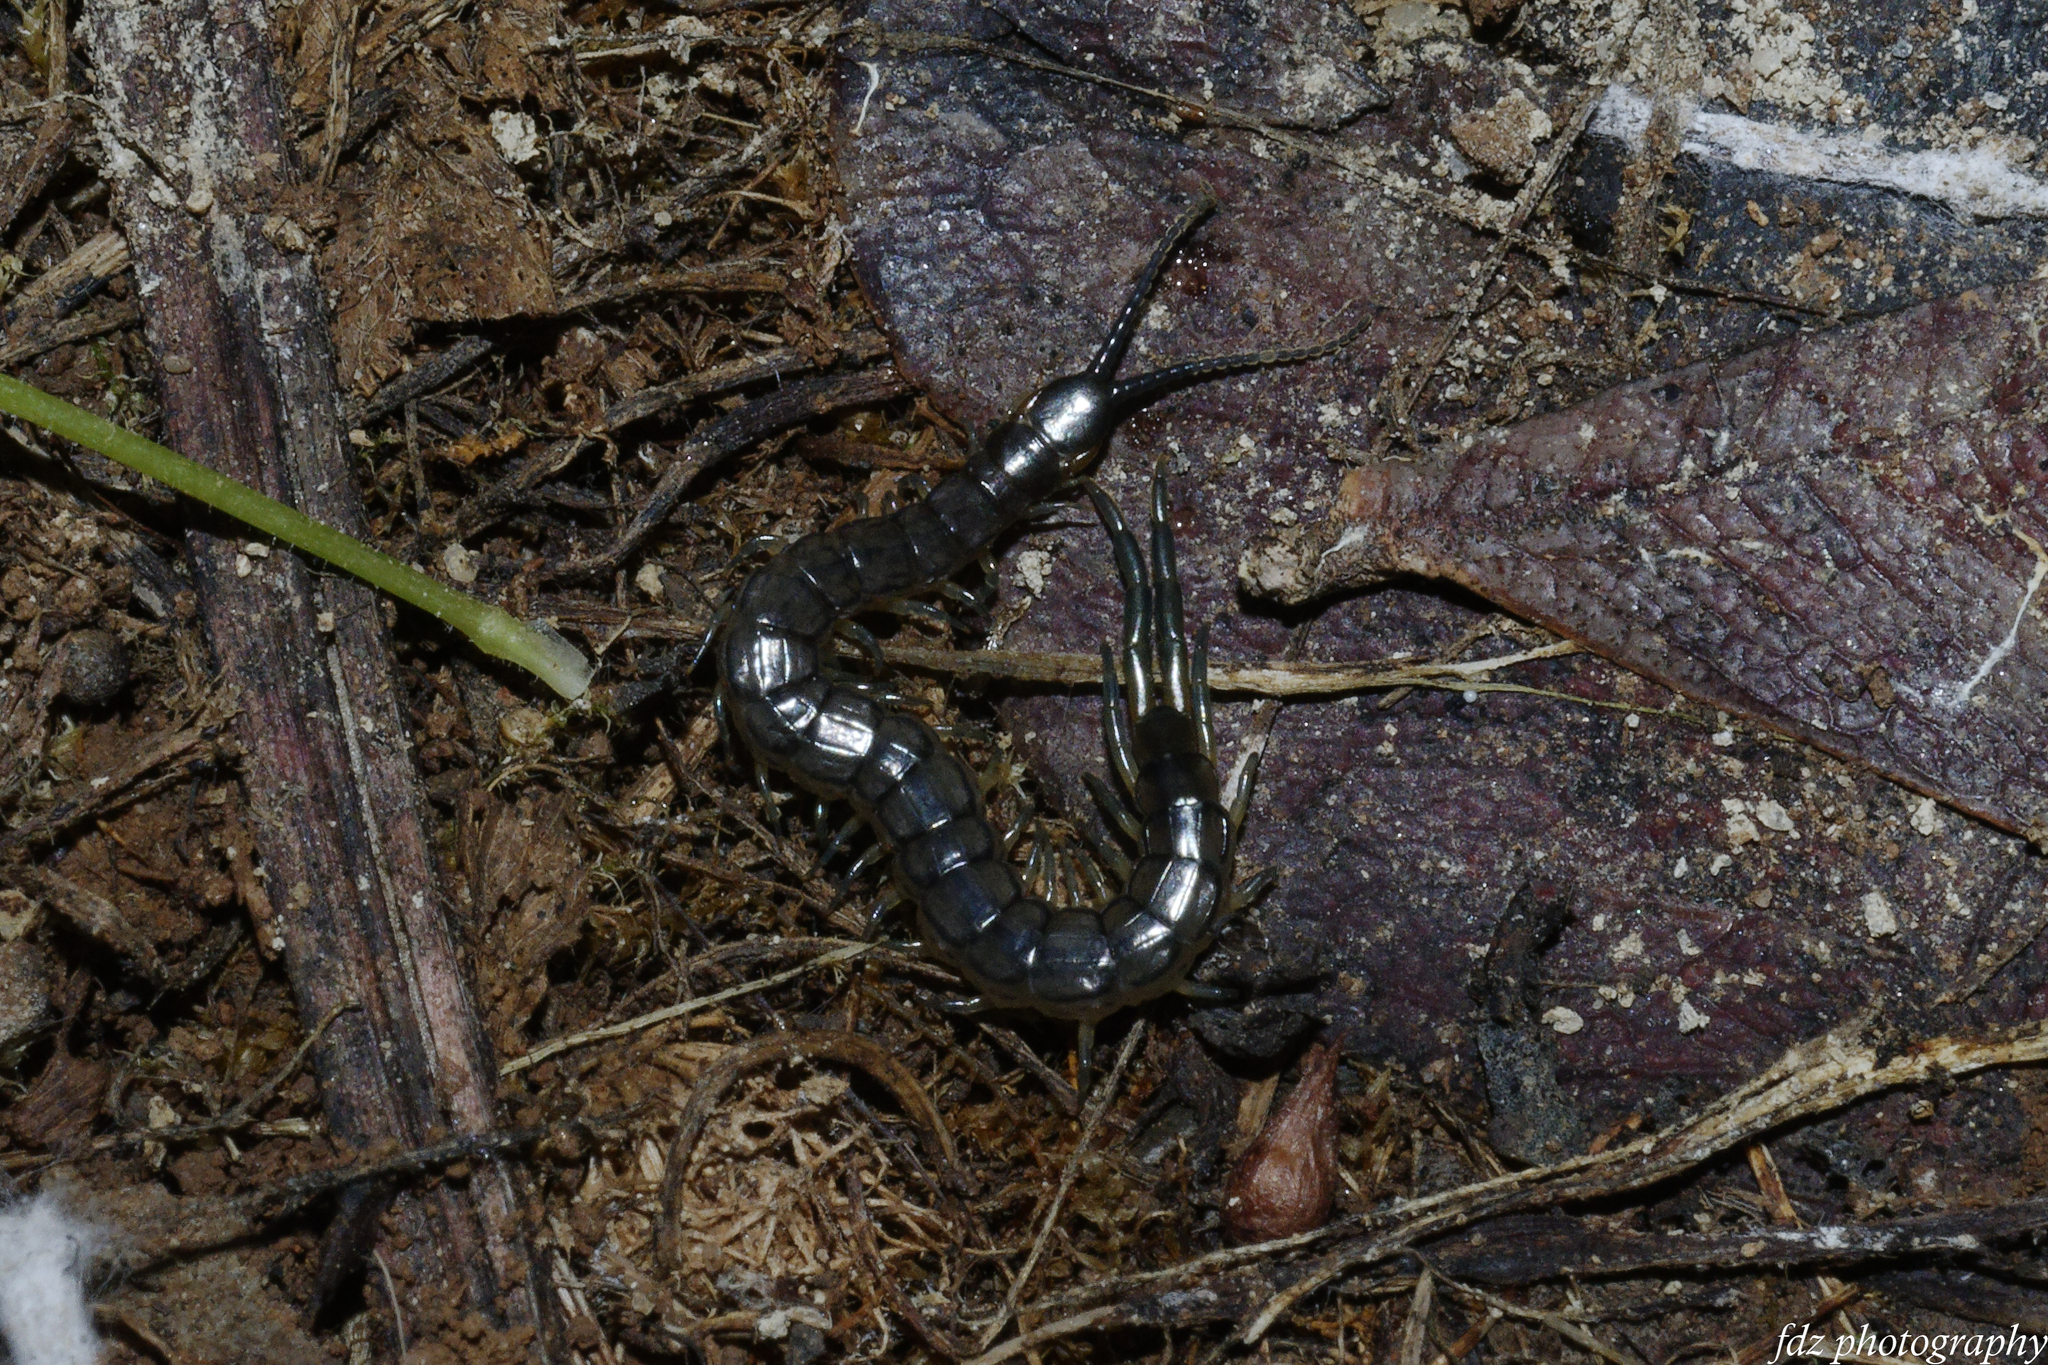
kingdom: Animalia
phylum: Arthropoda
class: Chilopoda
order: Scolopendromorpha
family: Scolopendridae
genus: Scolopendra
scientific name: Scolopendra oraniensis
